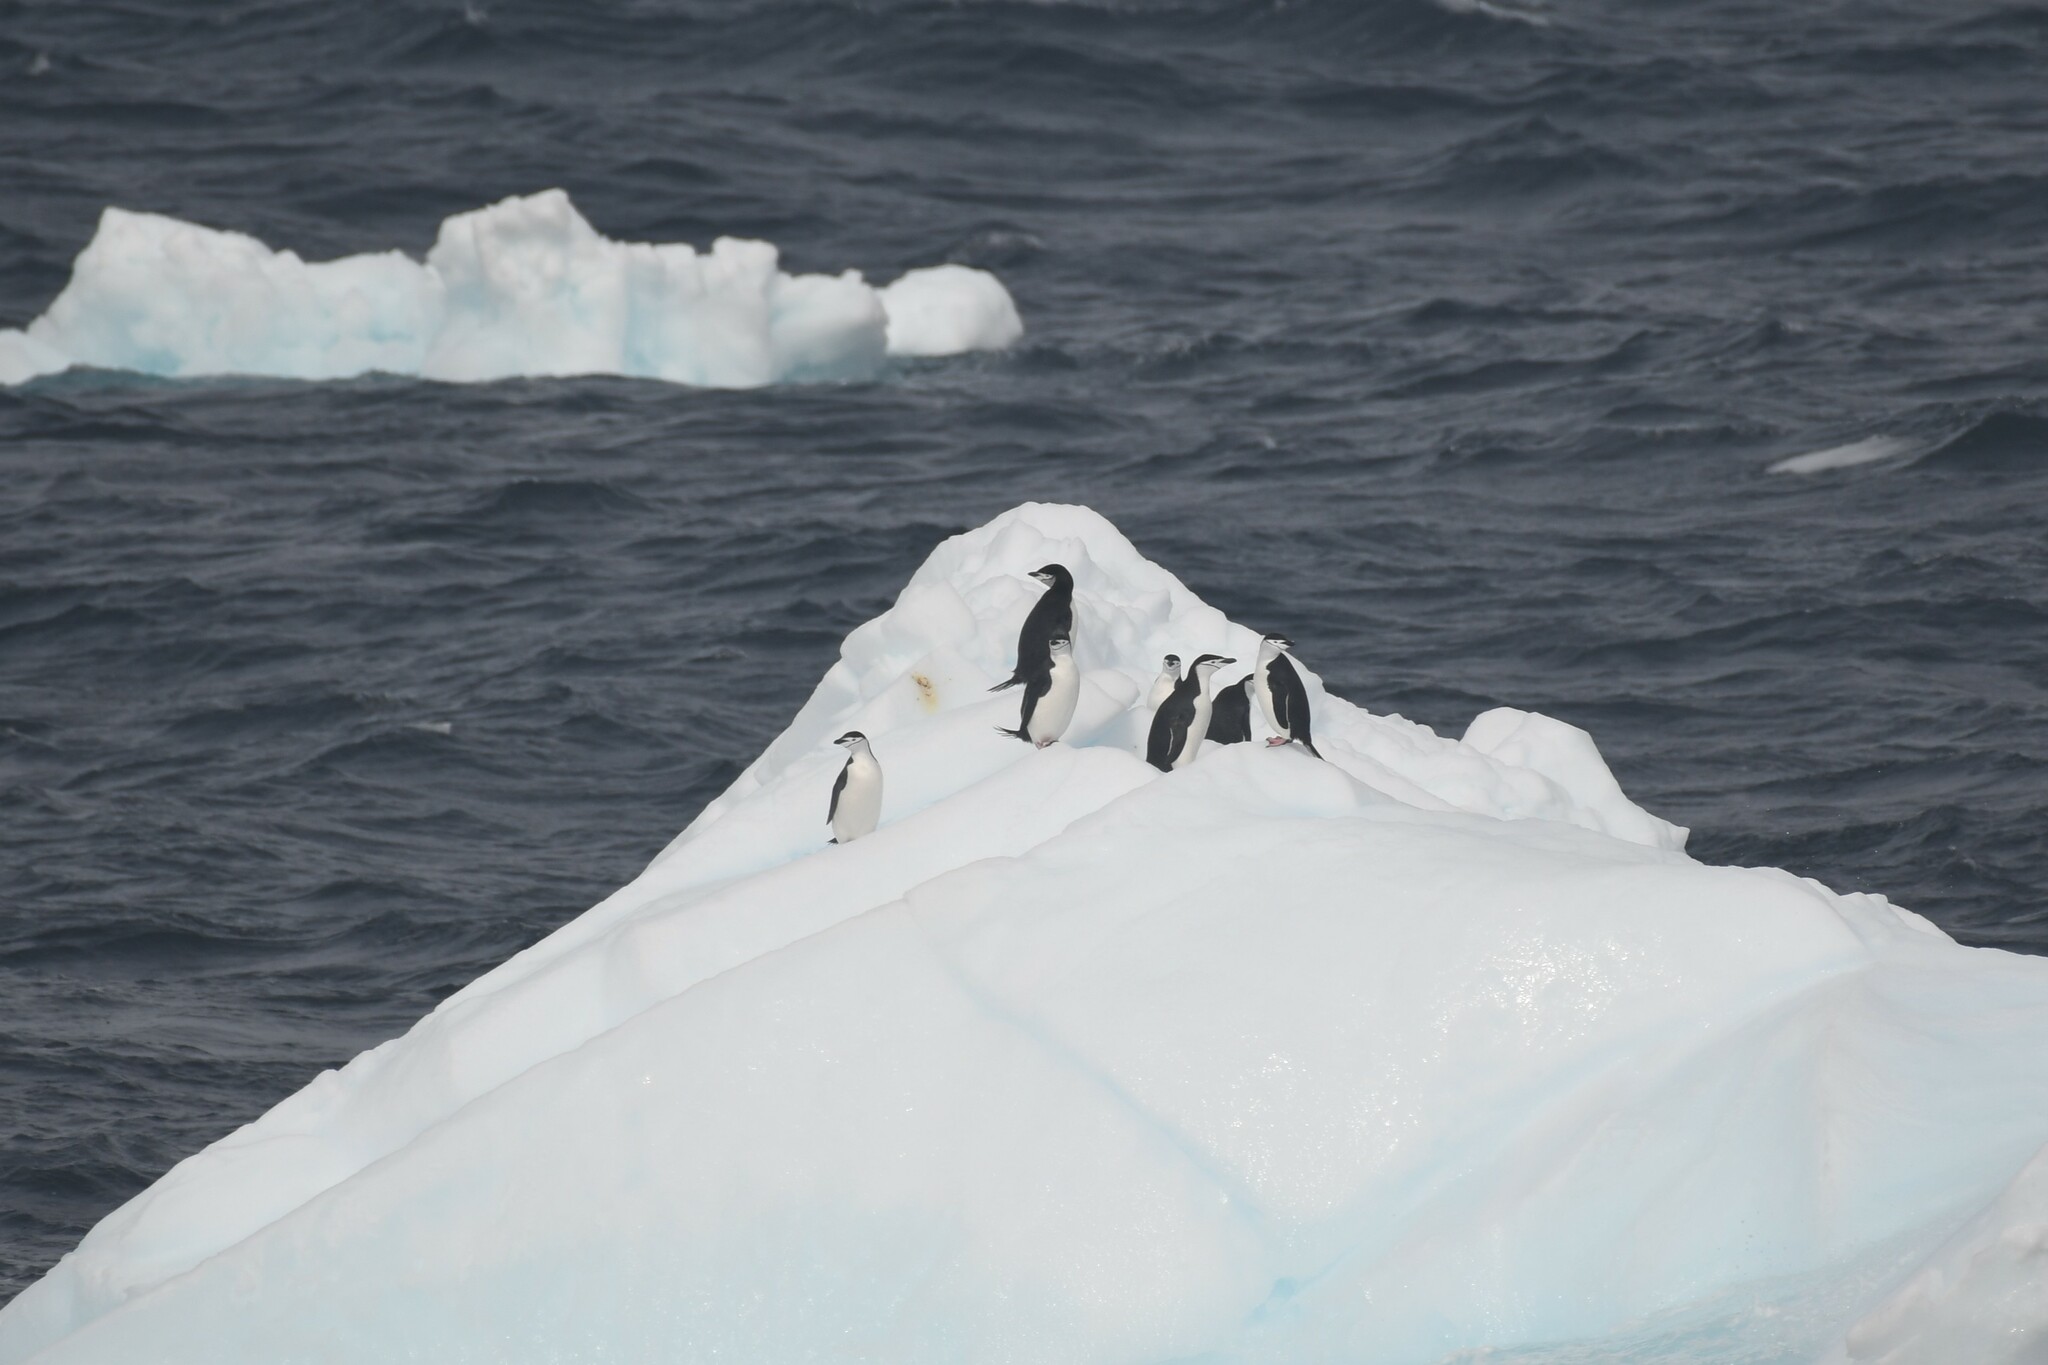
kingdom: Animalia
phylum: Chordata
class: Aves
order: Sphenisciformes
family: Spheniscidae
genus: Pygoscelis
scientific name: Pygoscelis antarcticus
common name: Chinstrap penguin
